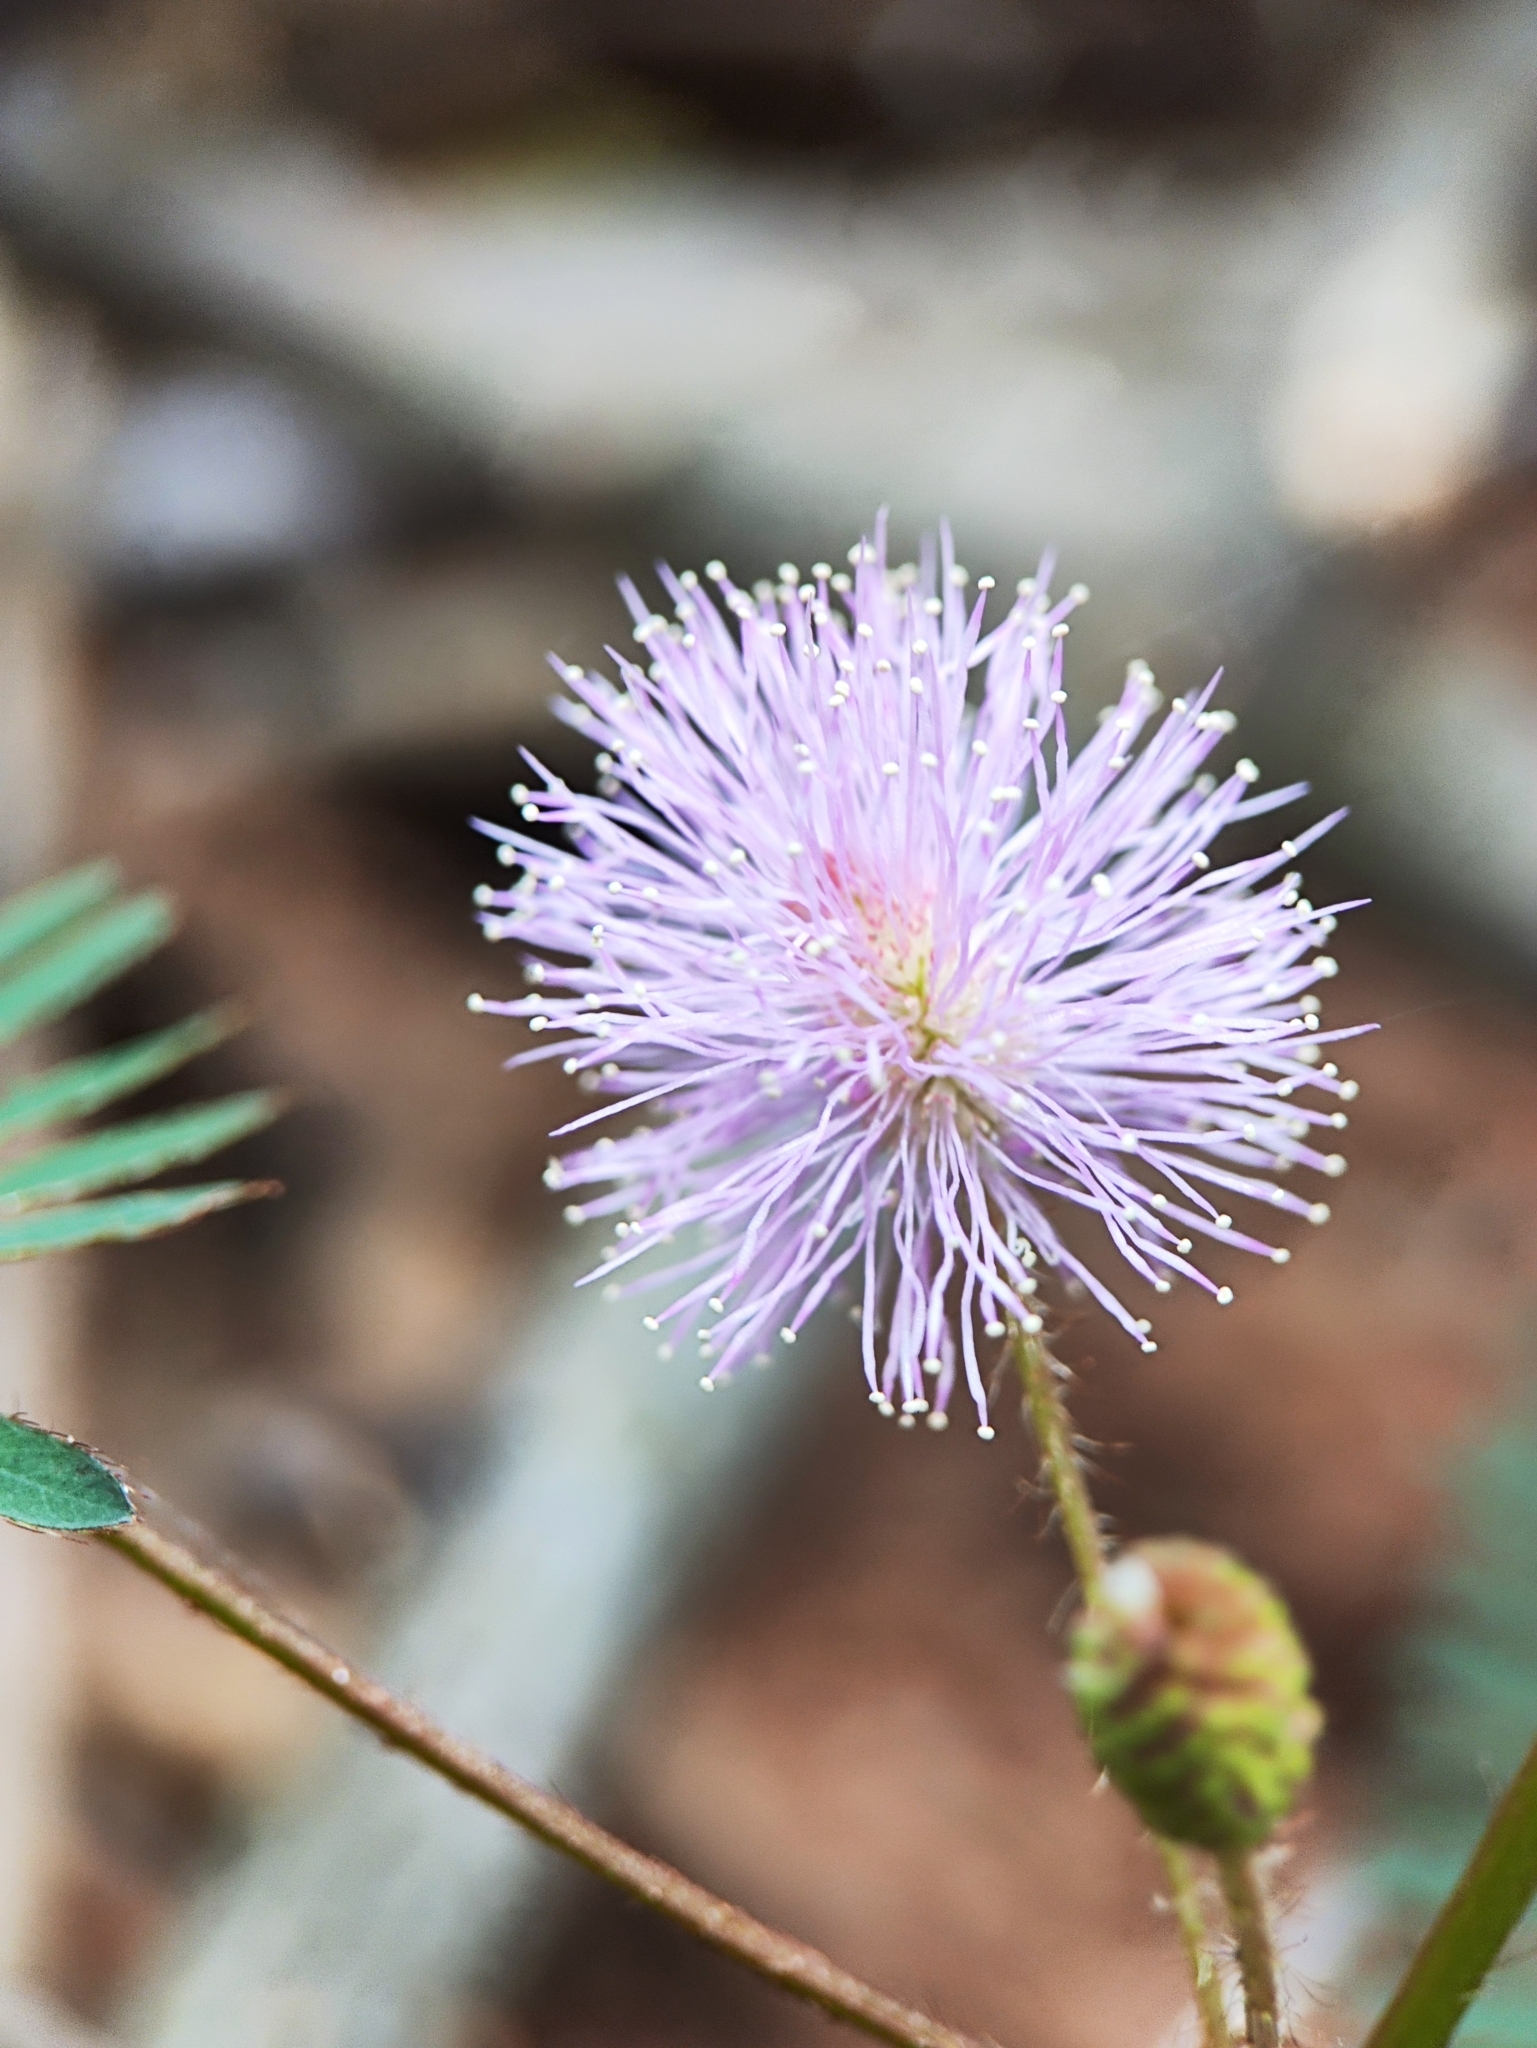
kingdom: Plantae
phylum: Tracheophyta
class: Magnoliopsida
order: Fabales
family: Fabaceae
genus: Mimosa
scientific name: Mimosa pudica
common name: Sensitive plant
